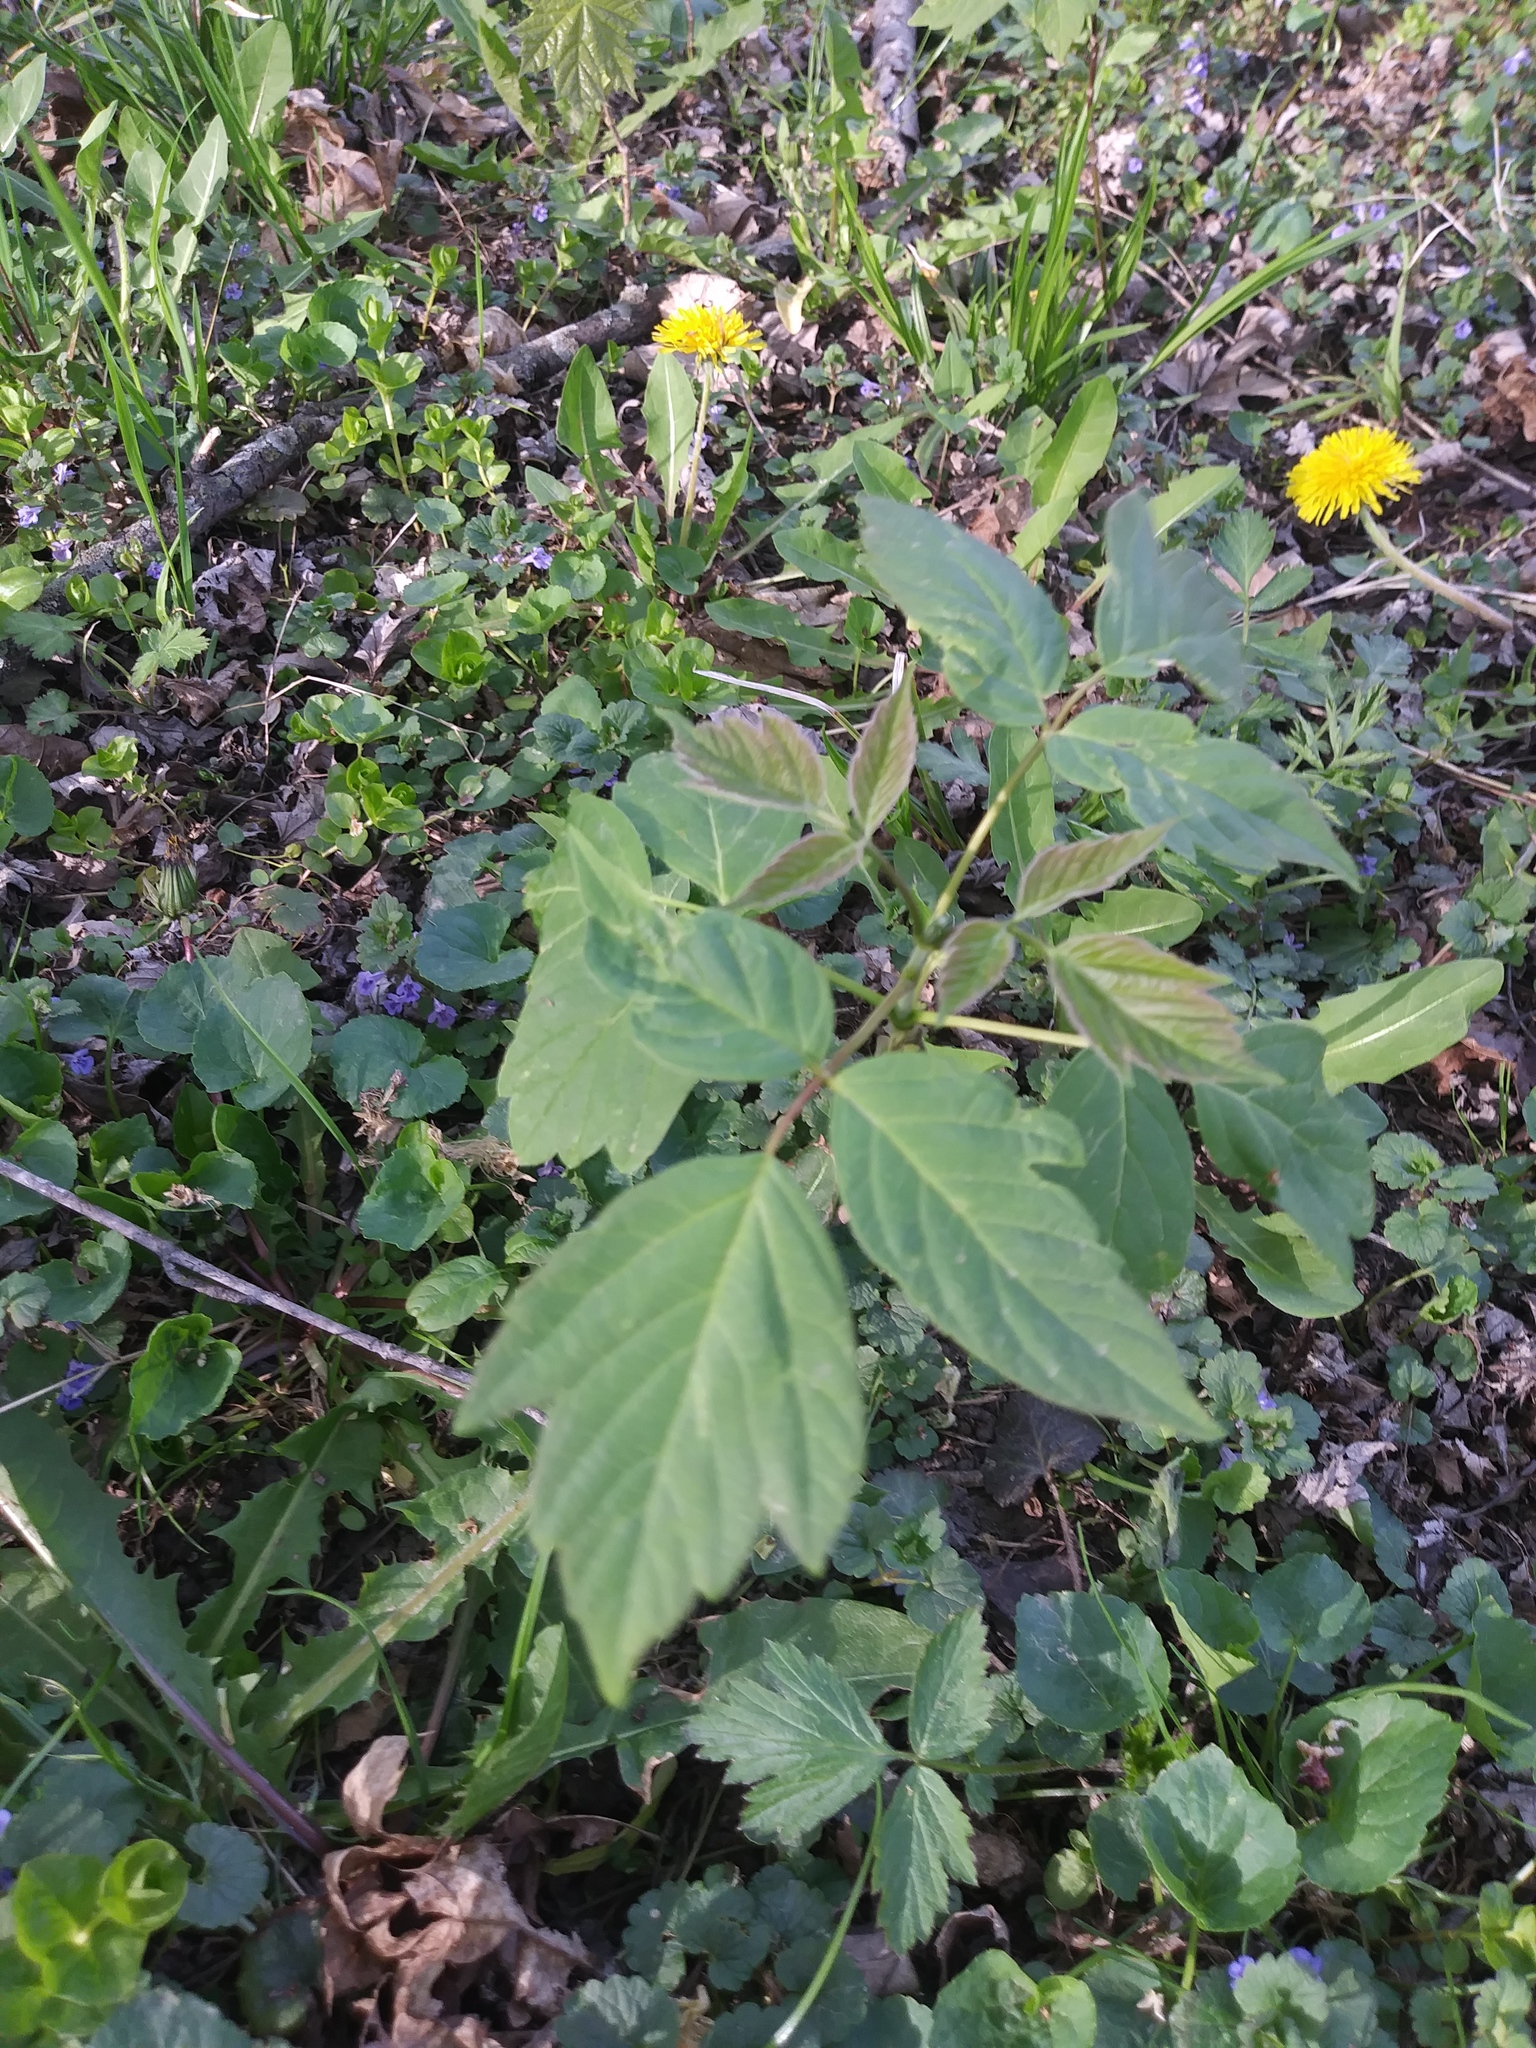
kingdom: Plantae
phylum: Tracheophyta
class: Magnoliopsida
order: Sapindales
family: Sapindaceae
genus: Acer
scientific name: Acer negundo
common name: Ashleaf maple
